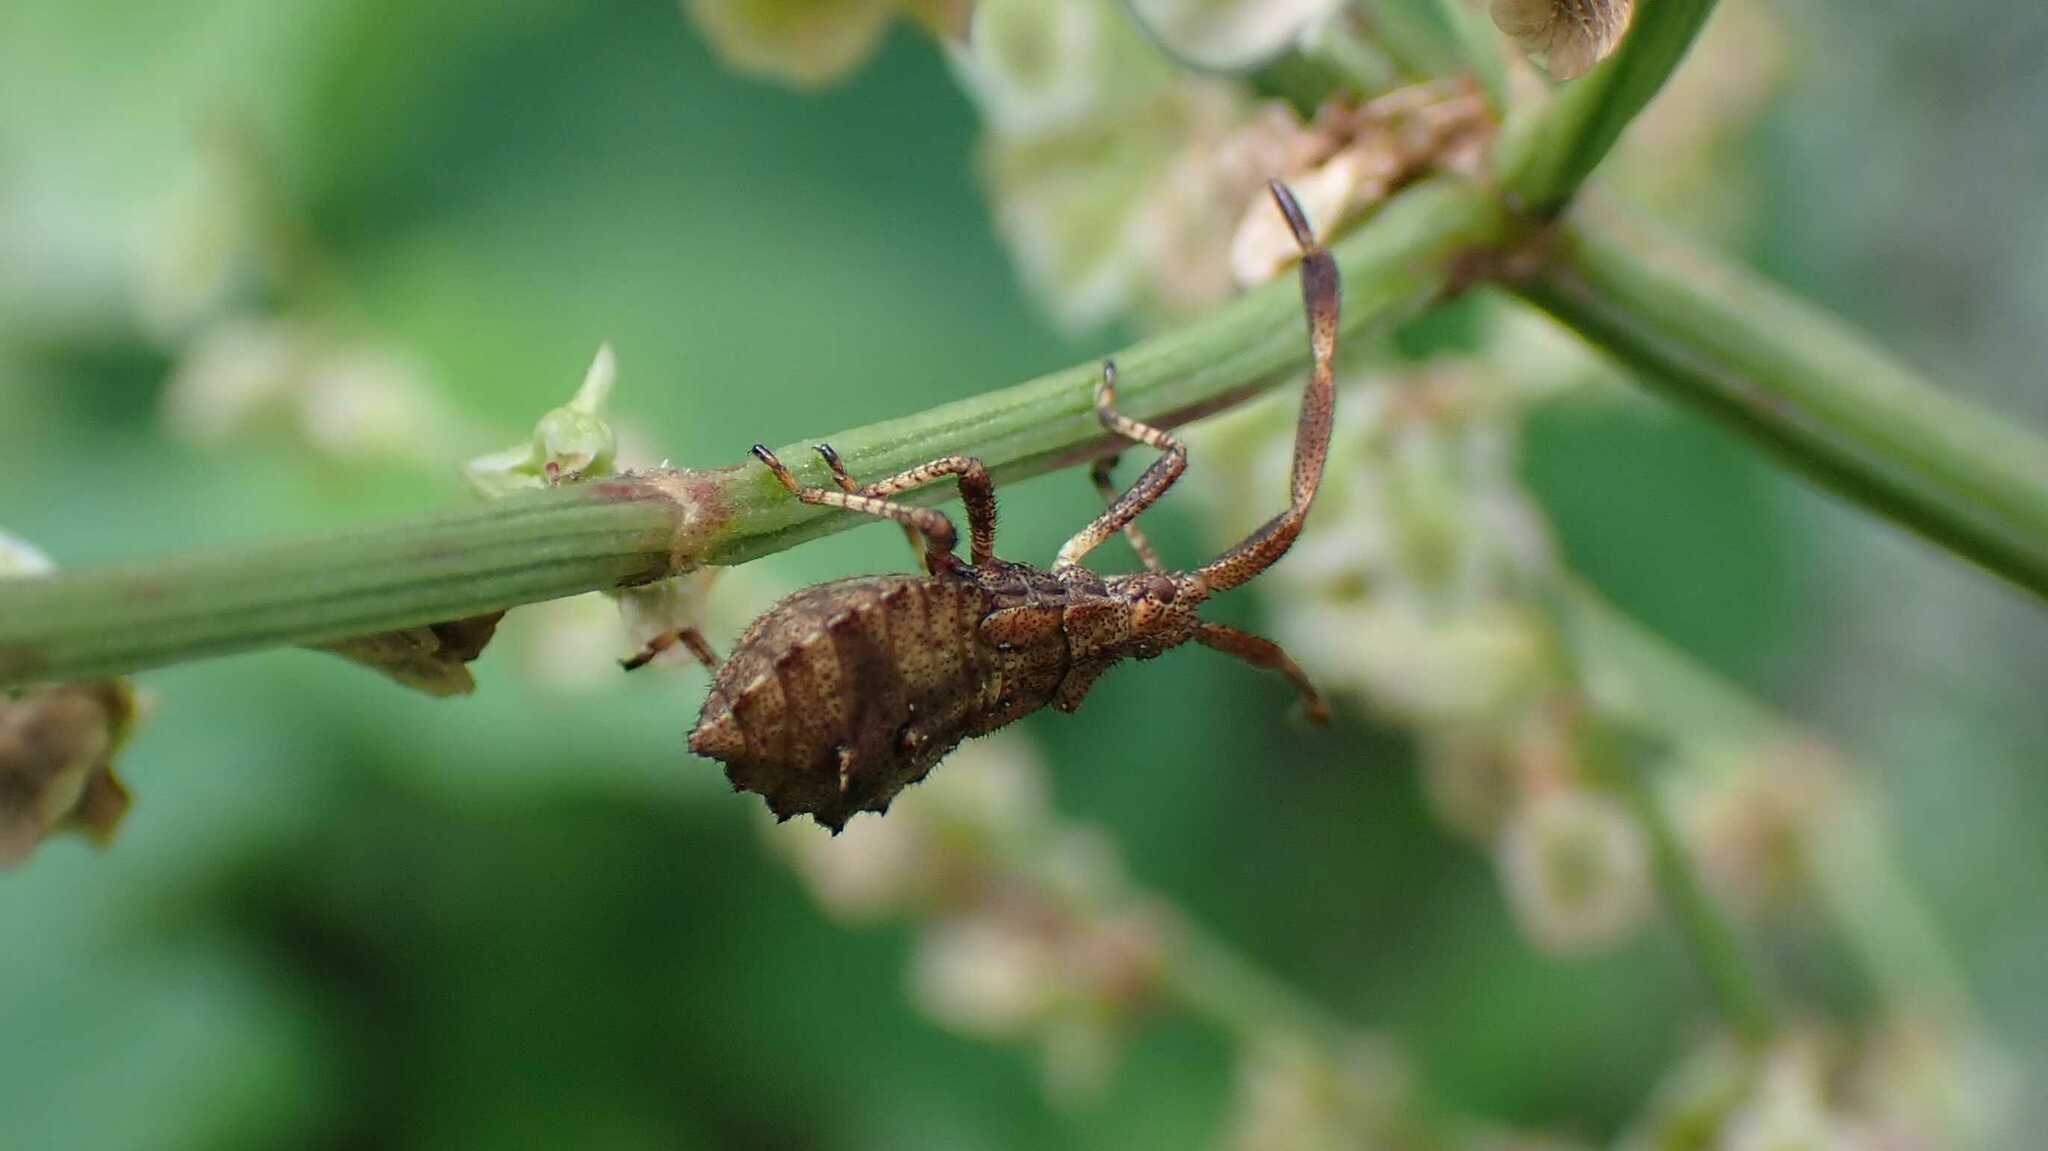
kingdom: Animalia
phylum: Arthropoda
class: Insecta
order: Hemiptera
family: Coreidae
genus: Coreus
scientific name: Coreus marginatus
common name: Dock bug
